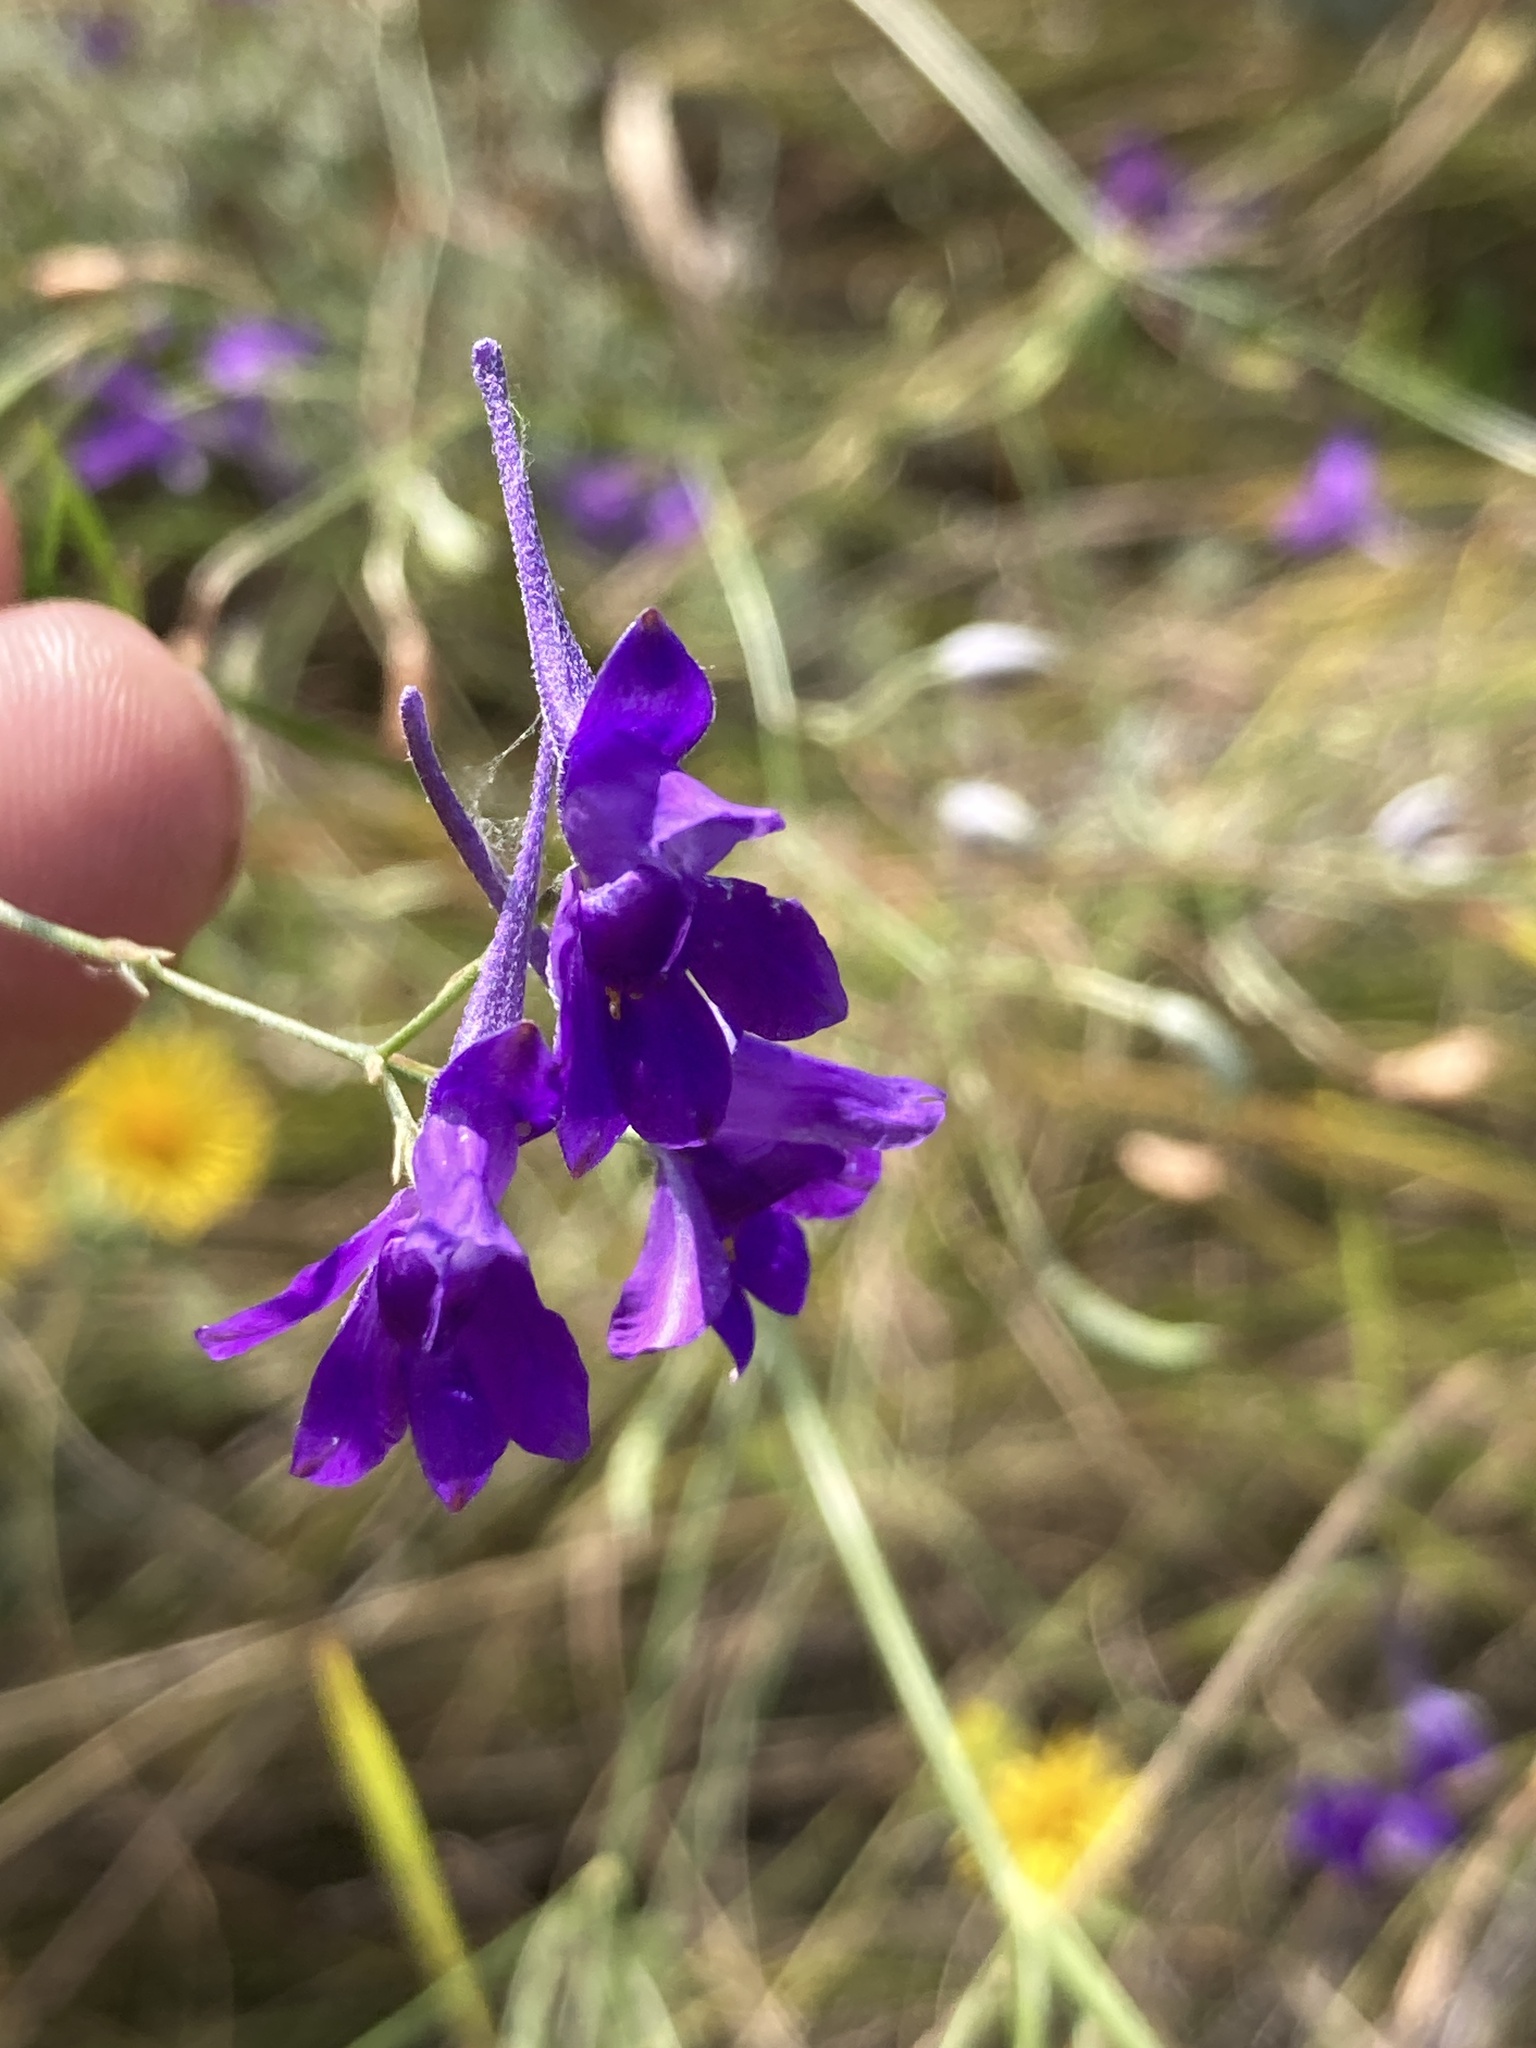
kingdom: Plantae
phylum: Tracheophyta
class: Magnoliopsida
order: Ranunculales
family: Ranunculaceae
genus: Delphinium
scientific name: Delphinium consolida
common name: Branching larkspur
